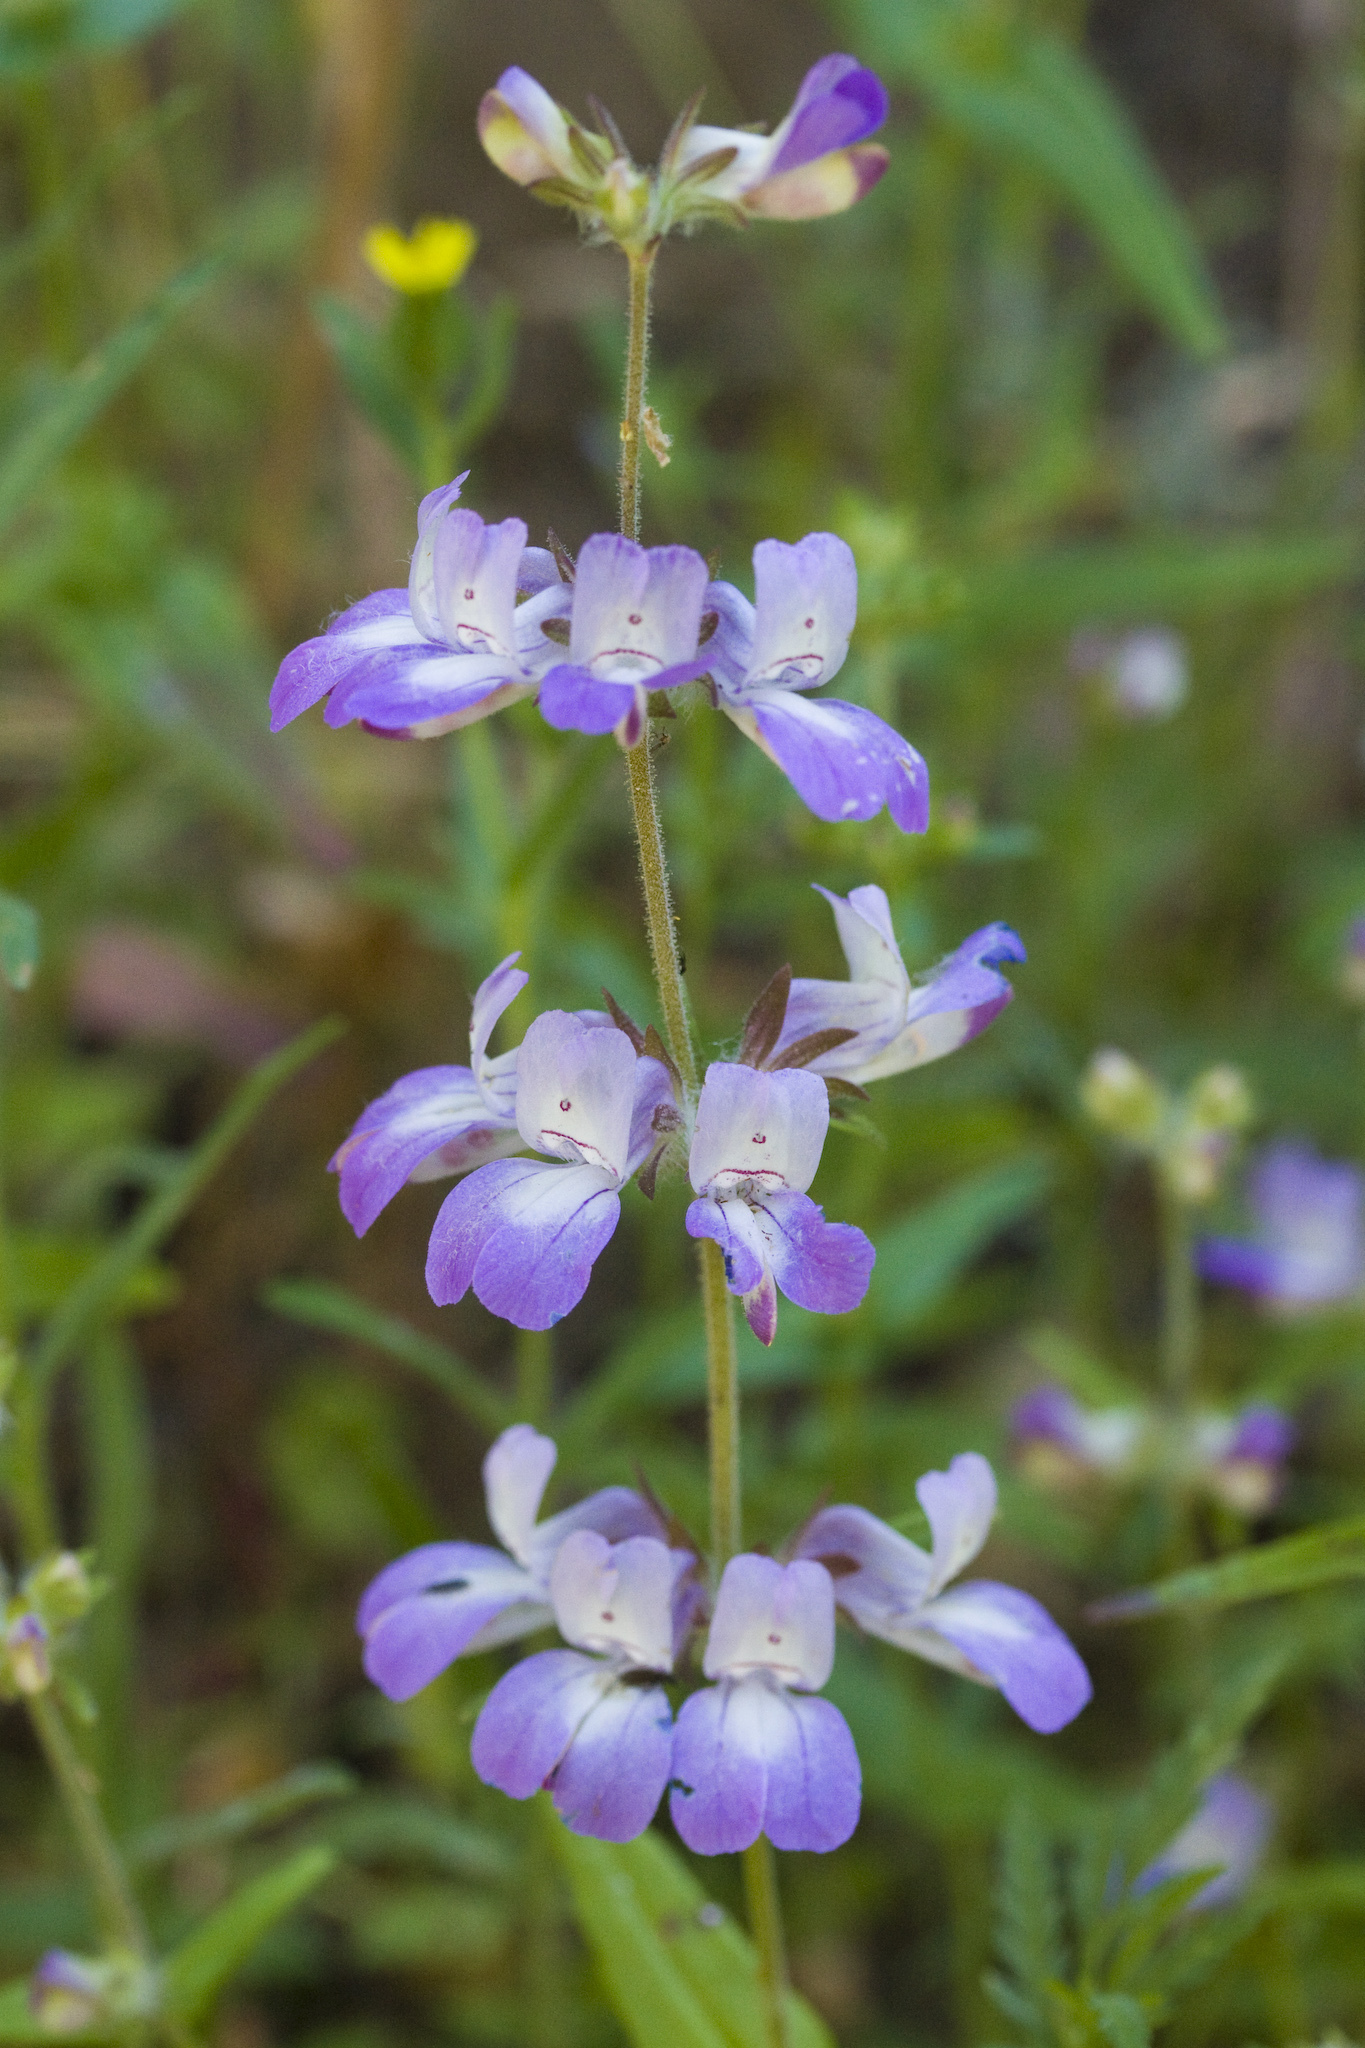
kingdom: Plantae
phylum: Tracheophyta
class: Magnoliopsida
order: Lamiales
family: Plantaginaceae
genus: Collinsia
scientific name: Collinsia heterophylla
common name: Chinese-houses
